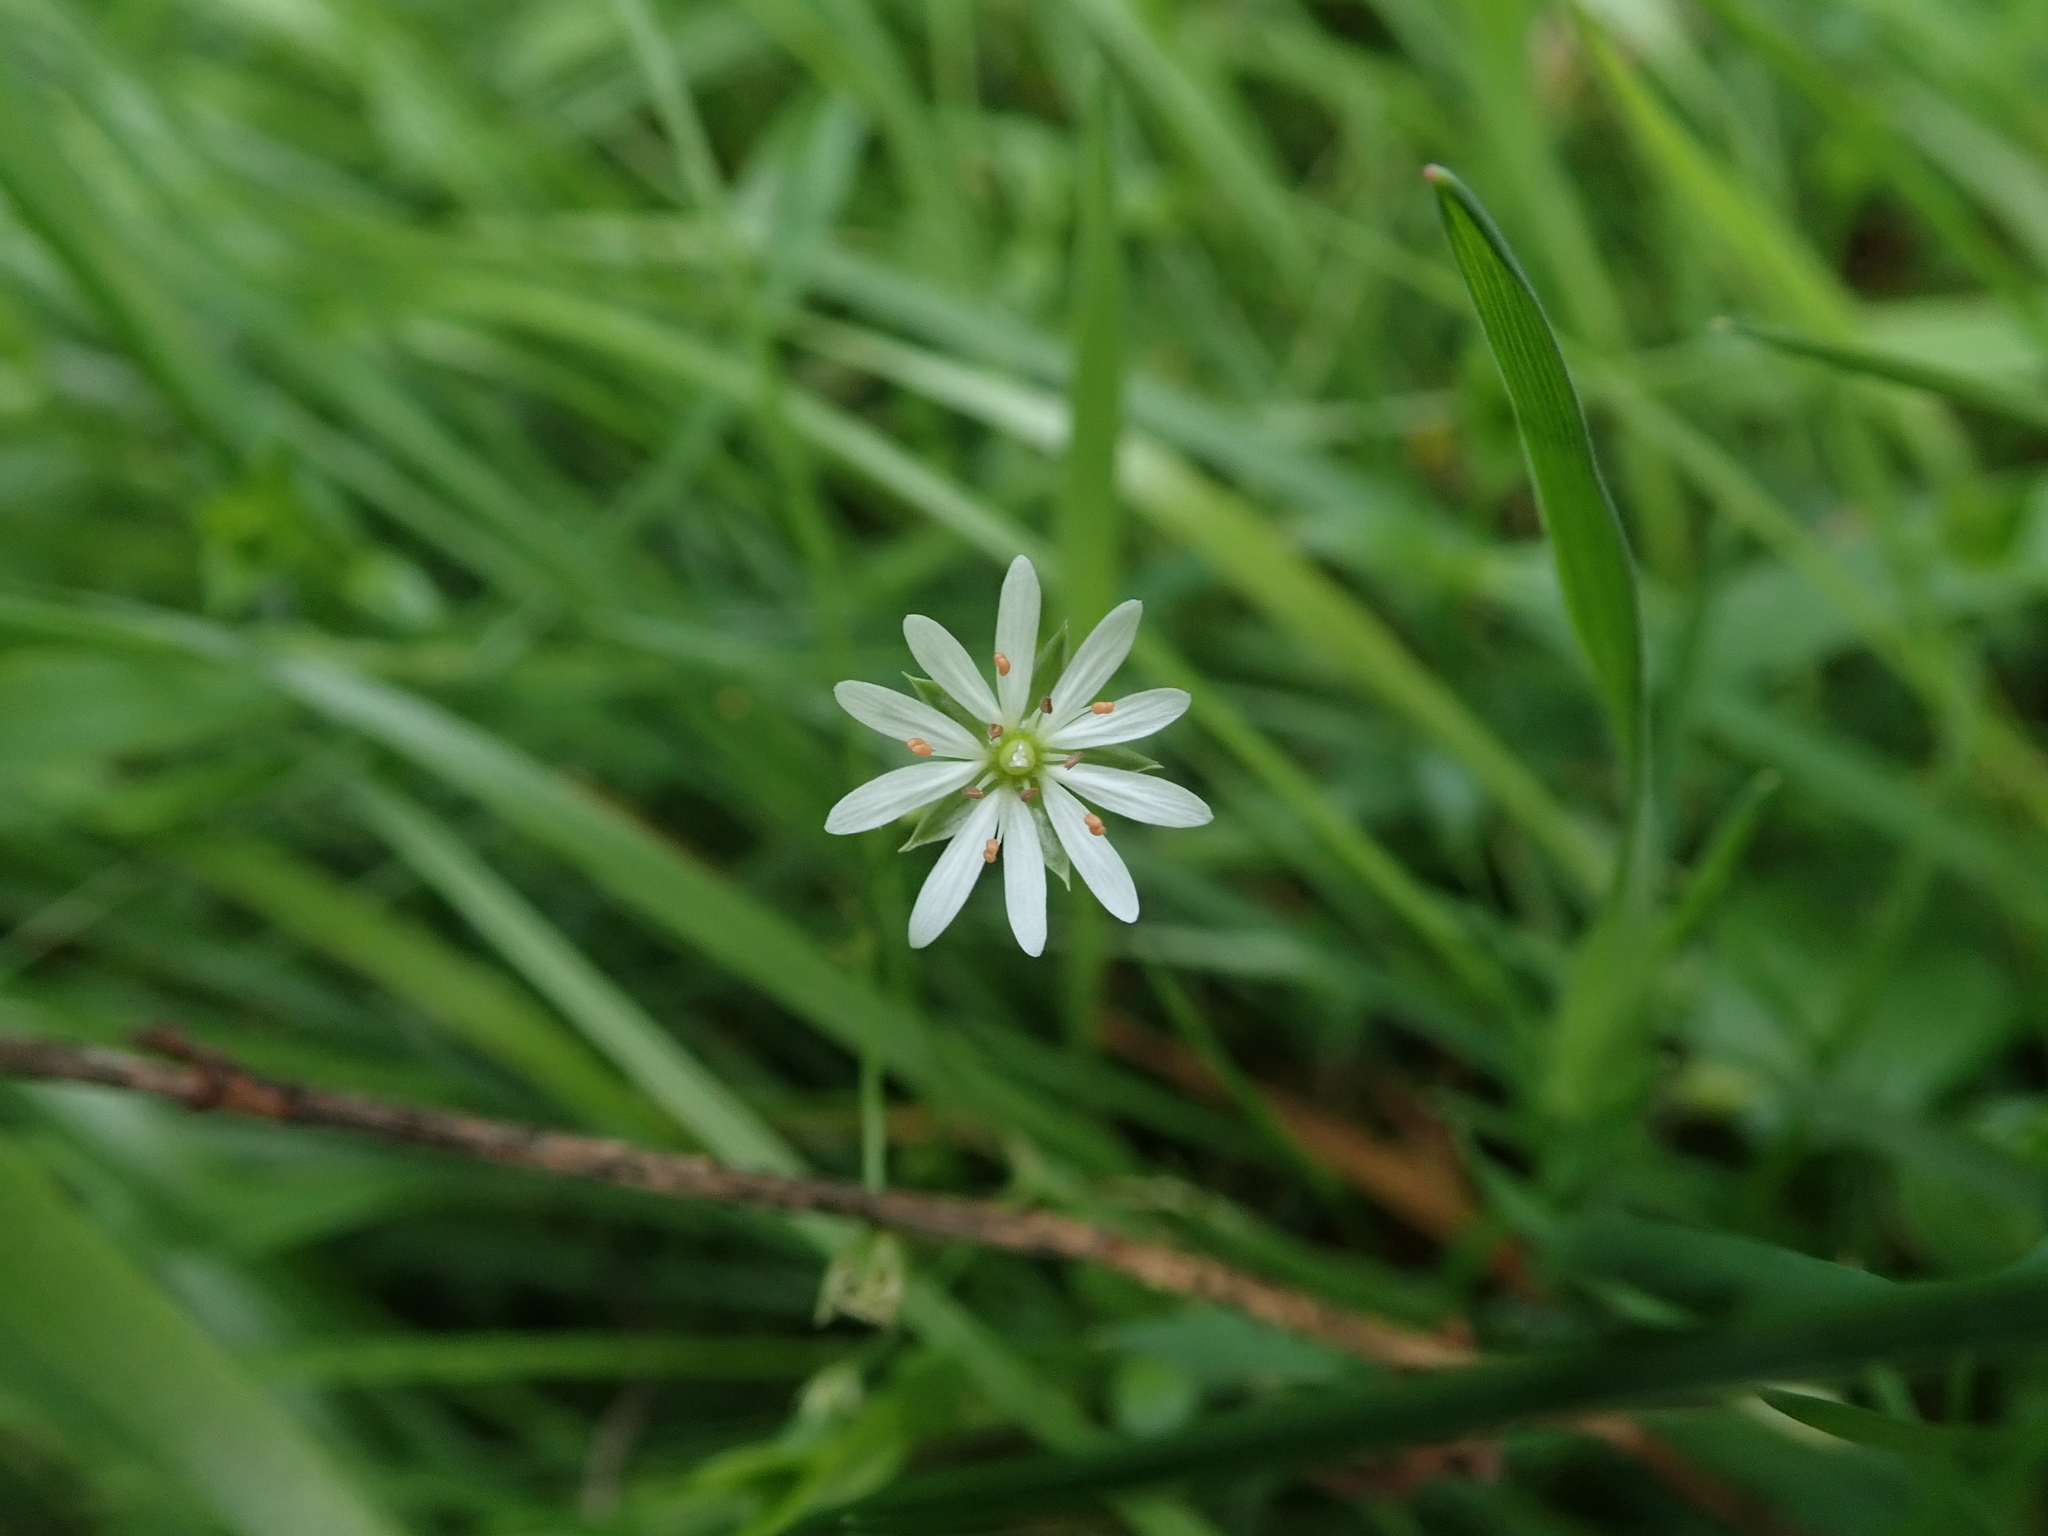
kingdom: Plantae
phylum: Tracheophyta
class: Magnoliopsida
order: Caryophyllales
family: Caryophyllaceae
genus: Stellaria
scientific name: Stellaria graminea
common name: Grass-like starwort
